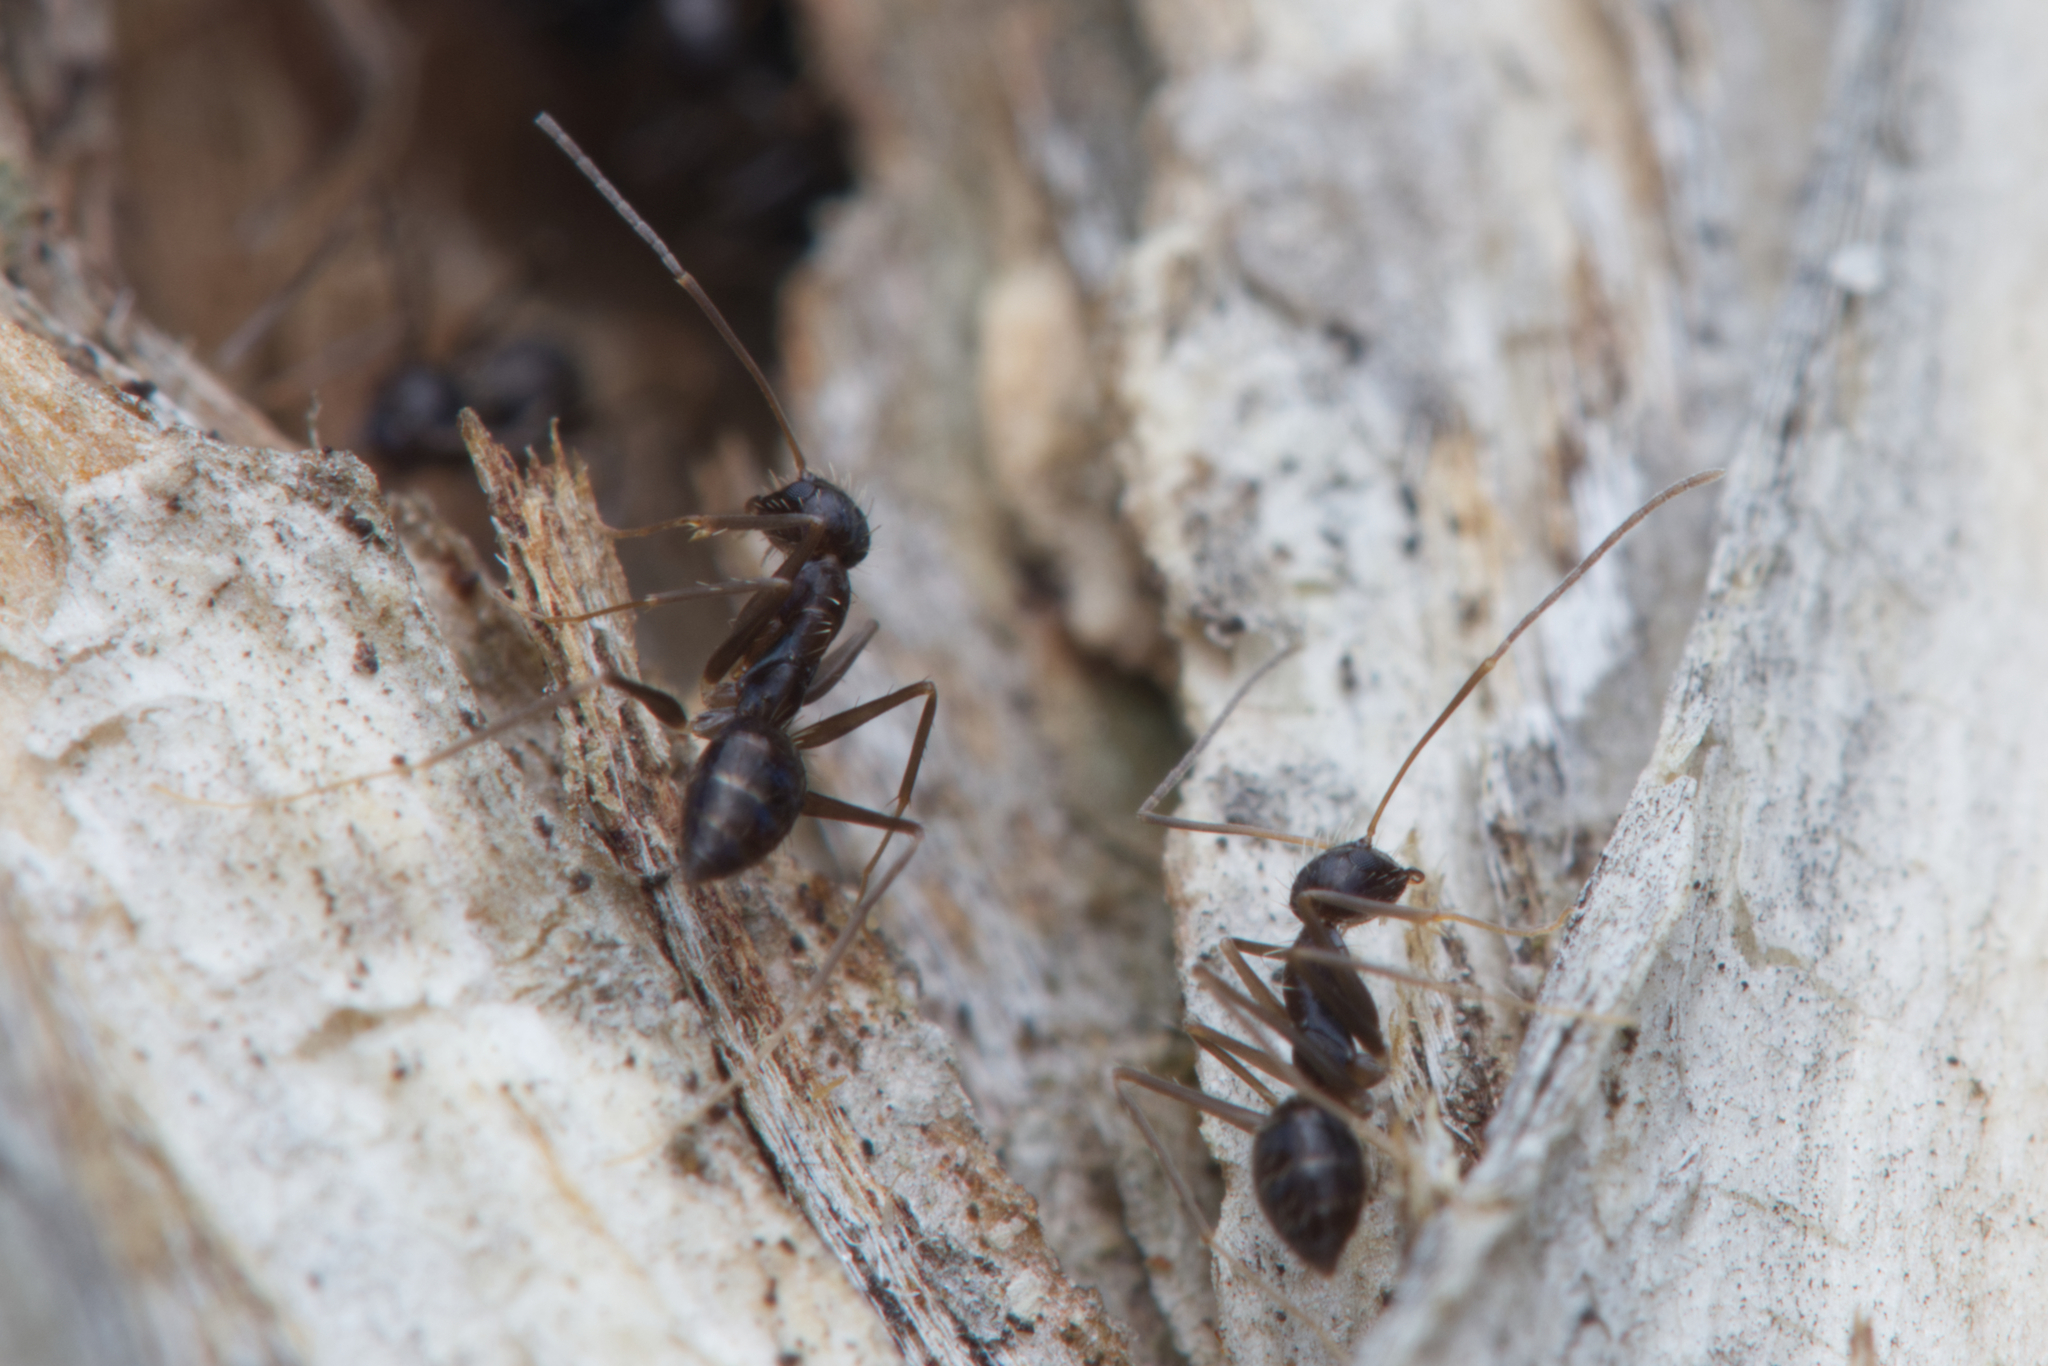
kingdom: Animalia
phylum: Arthropoda
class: Insecta
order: Hymenoptera
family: Formicidae
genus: Paratrechina
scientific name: Paratrechina longicornis
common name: Longhorned crazy ant
